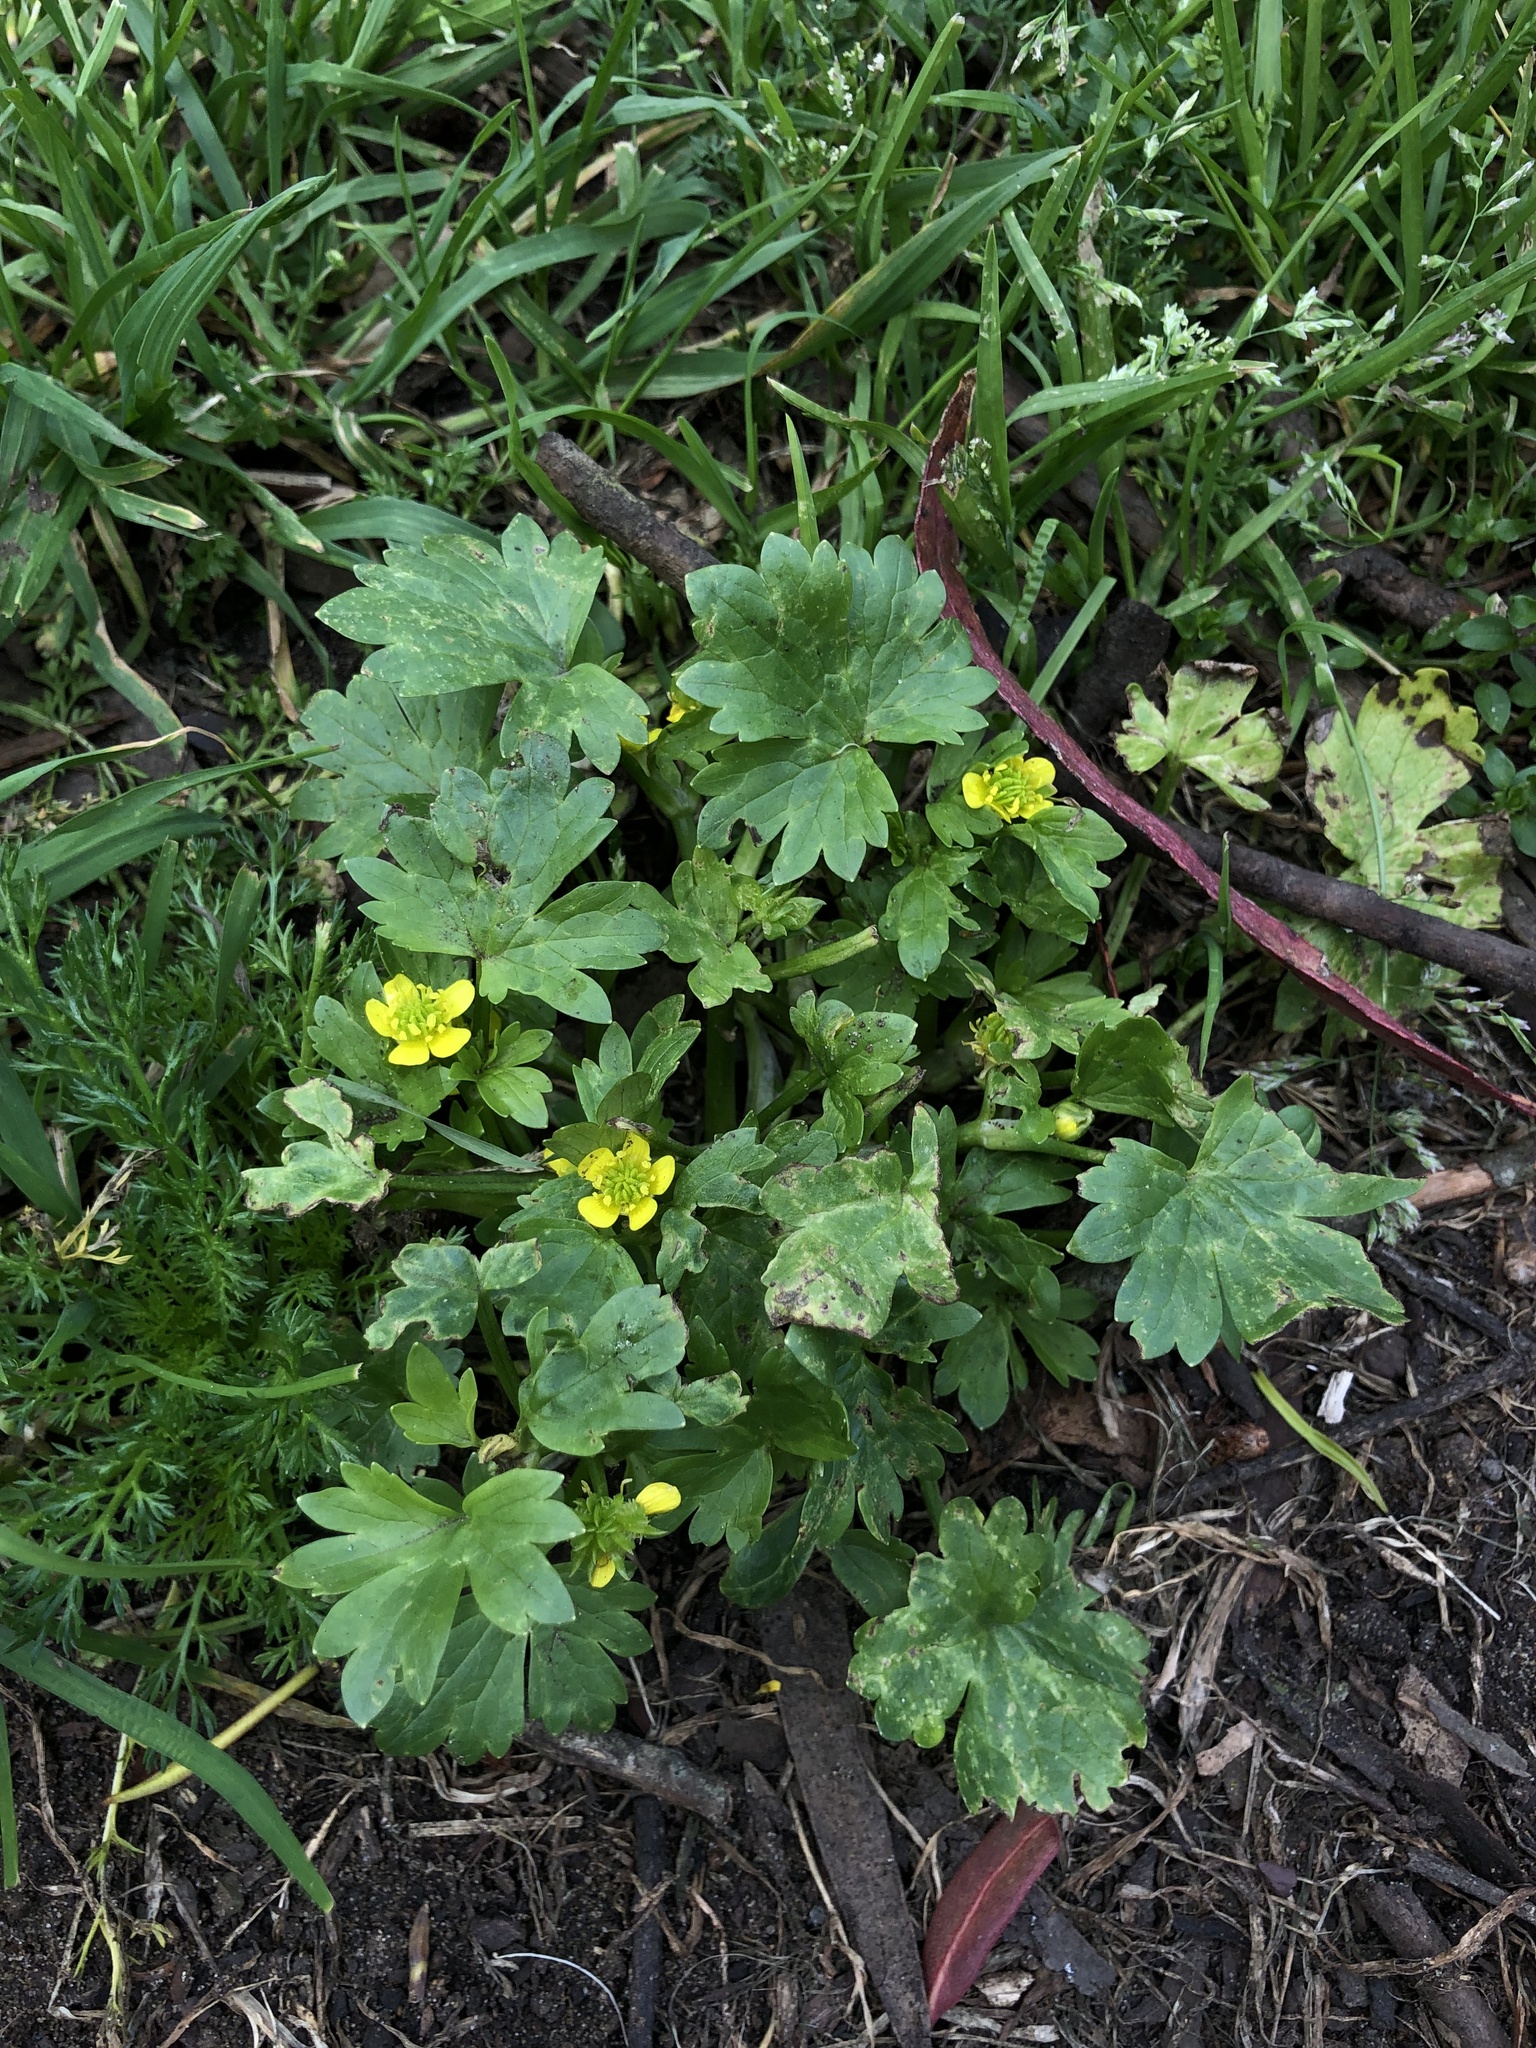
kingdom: Plantae
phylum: Tracheophyta
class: Magnoliopsida
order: Ranunculales
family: Ranunculaceae
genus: Ranunculus
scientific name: Ranunculus muricatus
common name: Rough-fruited buttercup
